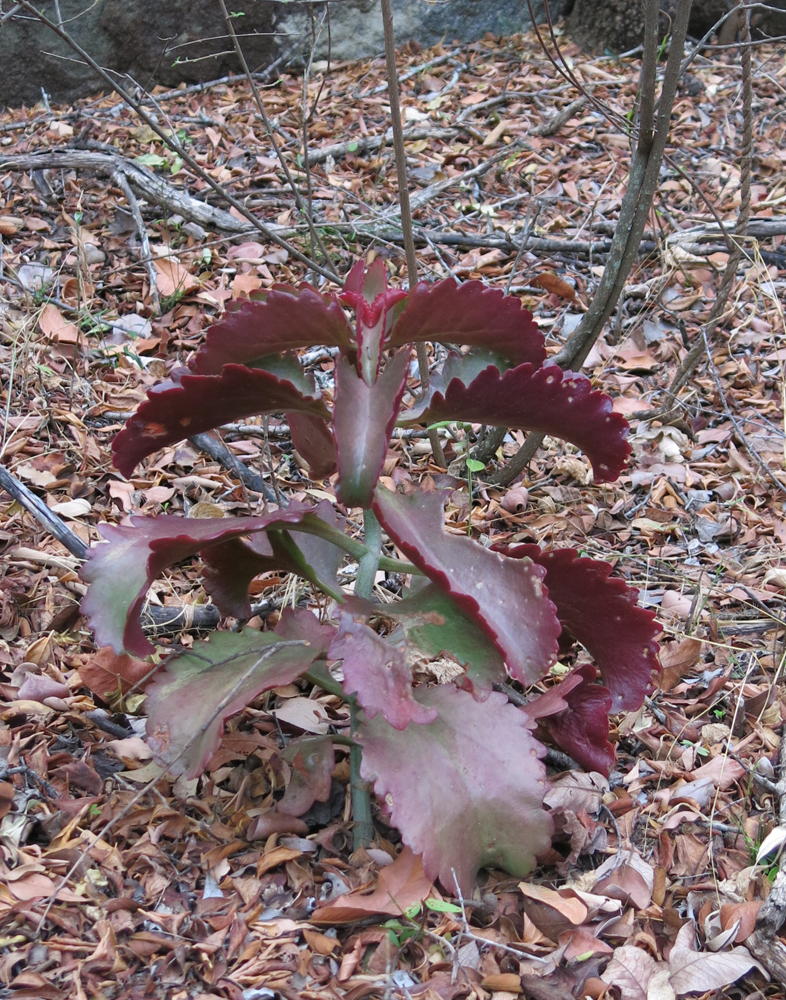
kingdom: Plantae
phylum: Tracheophyta
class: Magnoliopsida
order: Saxifragales
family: Crassulaceae
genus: Kalanchoe
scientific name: Kalanchoe sexangularis
